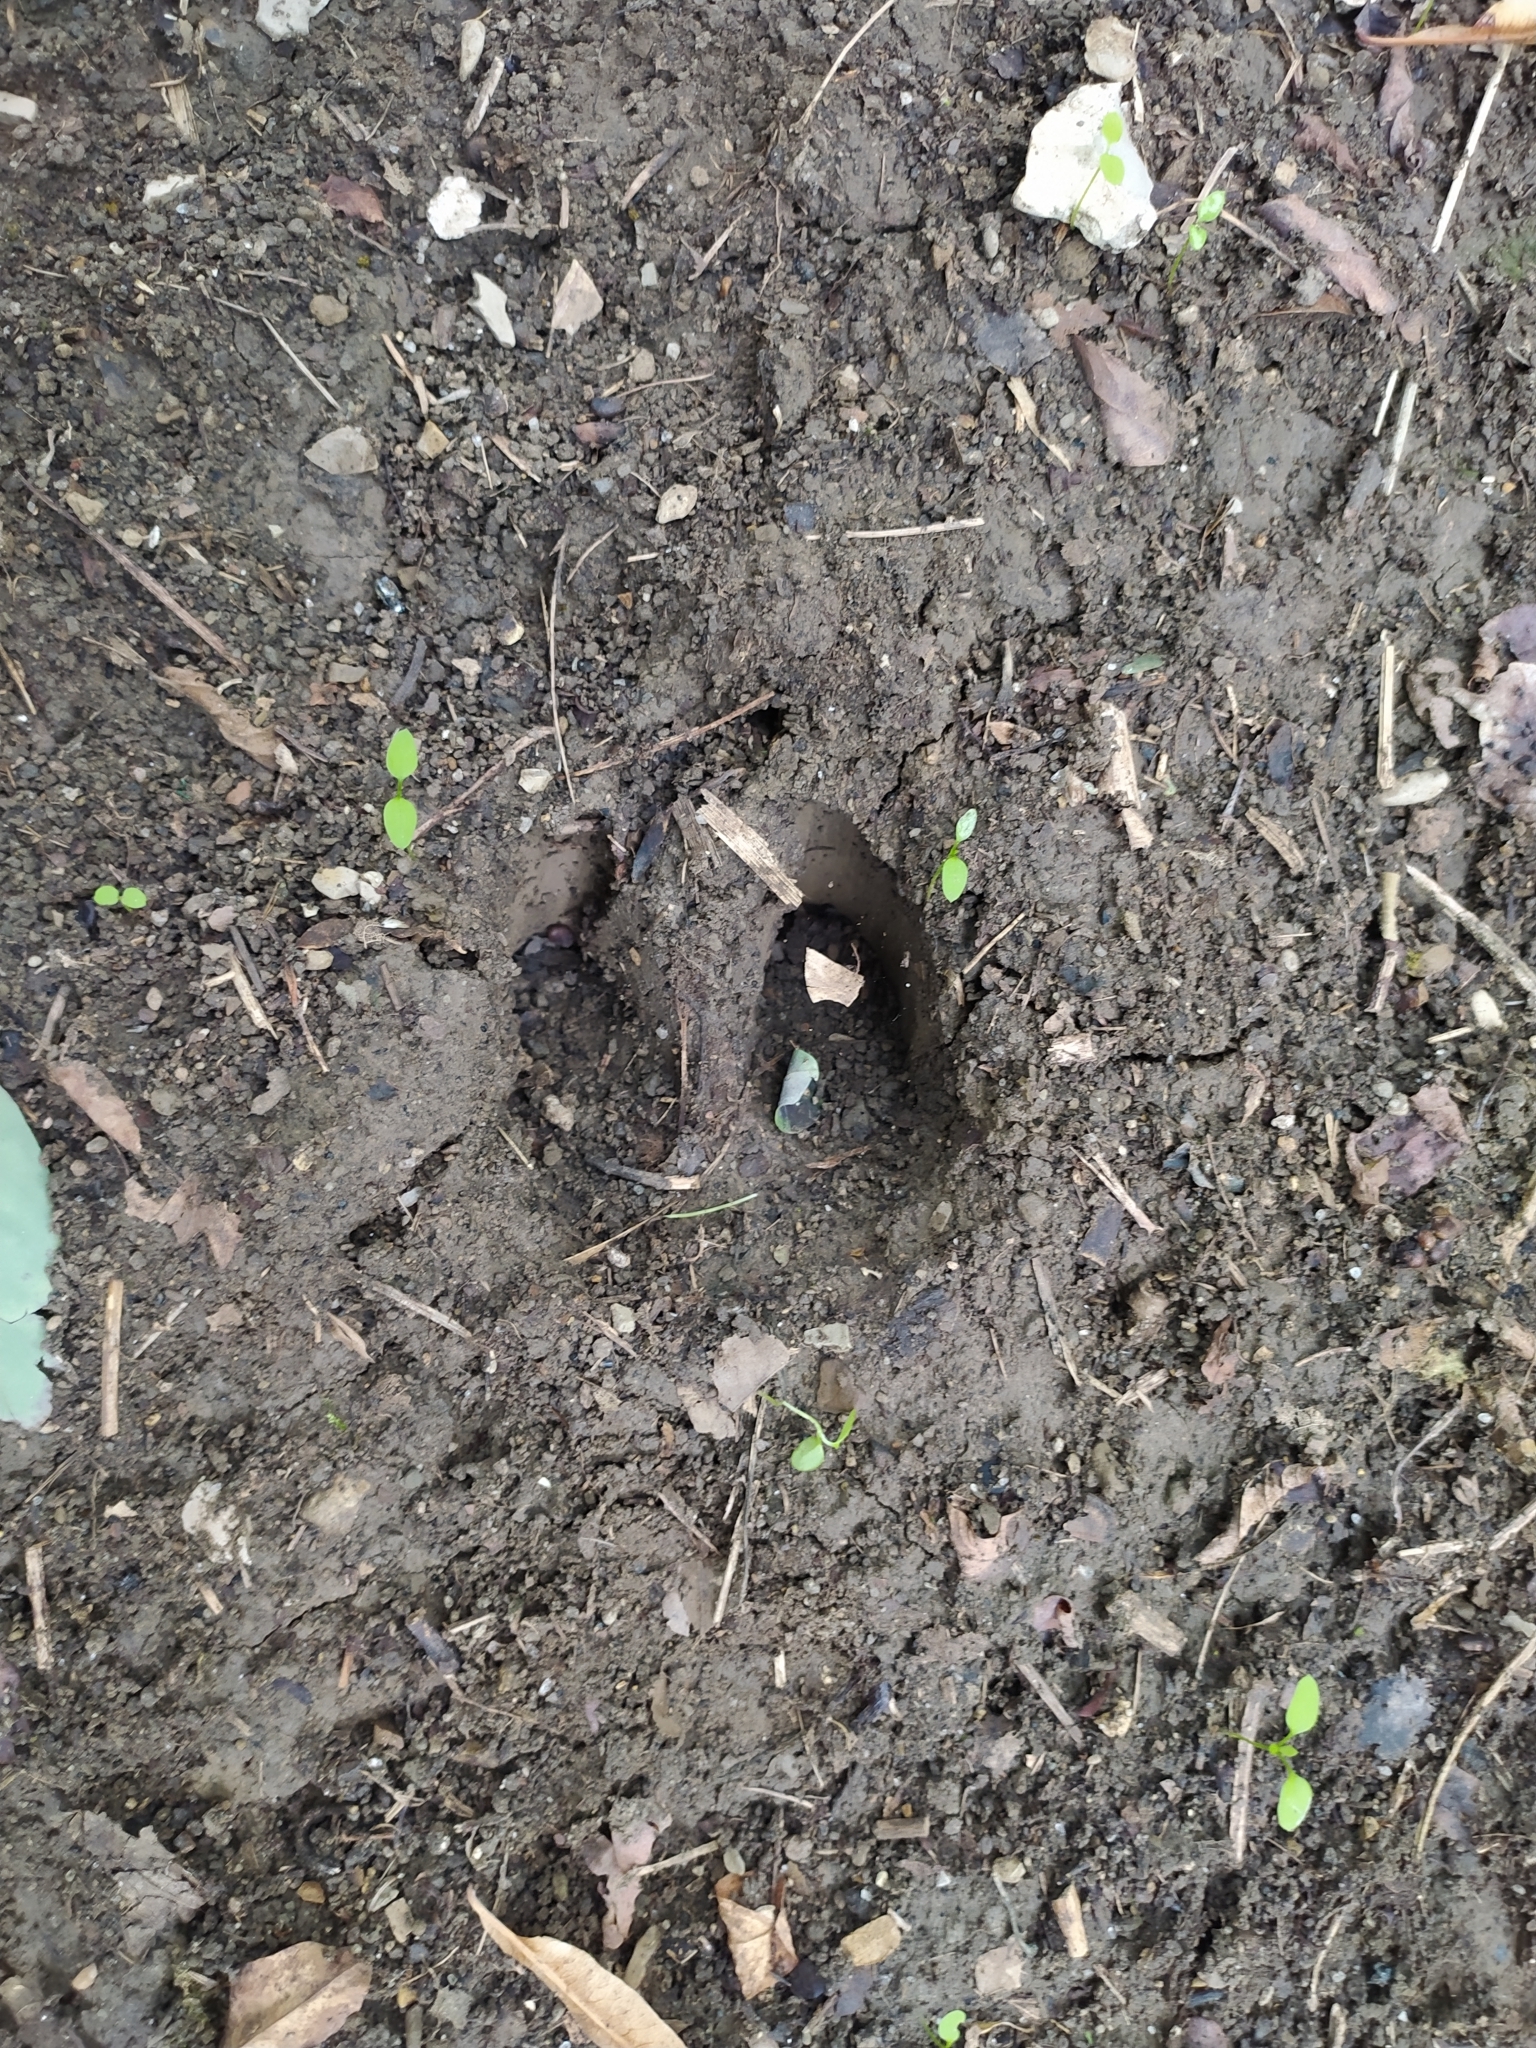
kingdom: Animalia
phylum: Chordata
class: Mammalia
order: Artiodactyla
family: Suidae
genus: Sus
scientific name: Sus scrofa
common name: Wild boar
